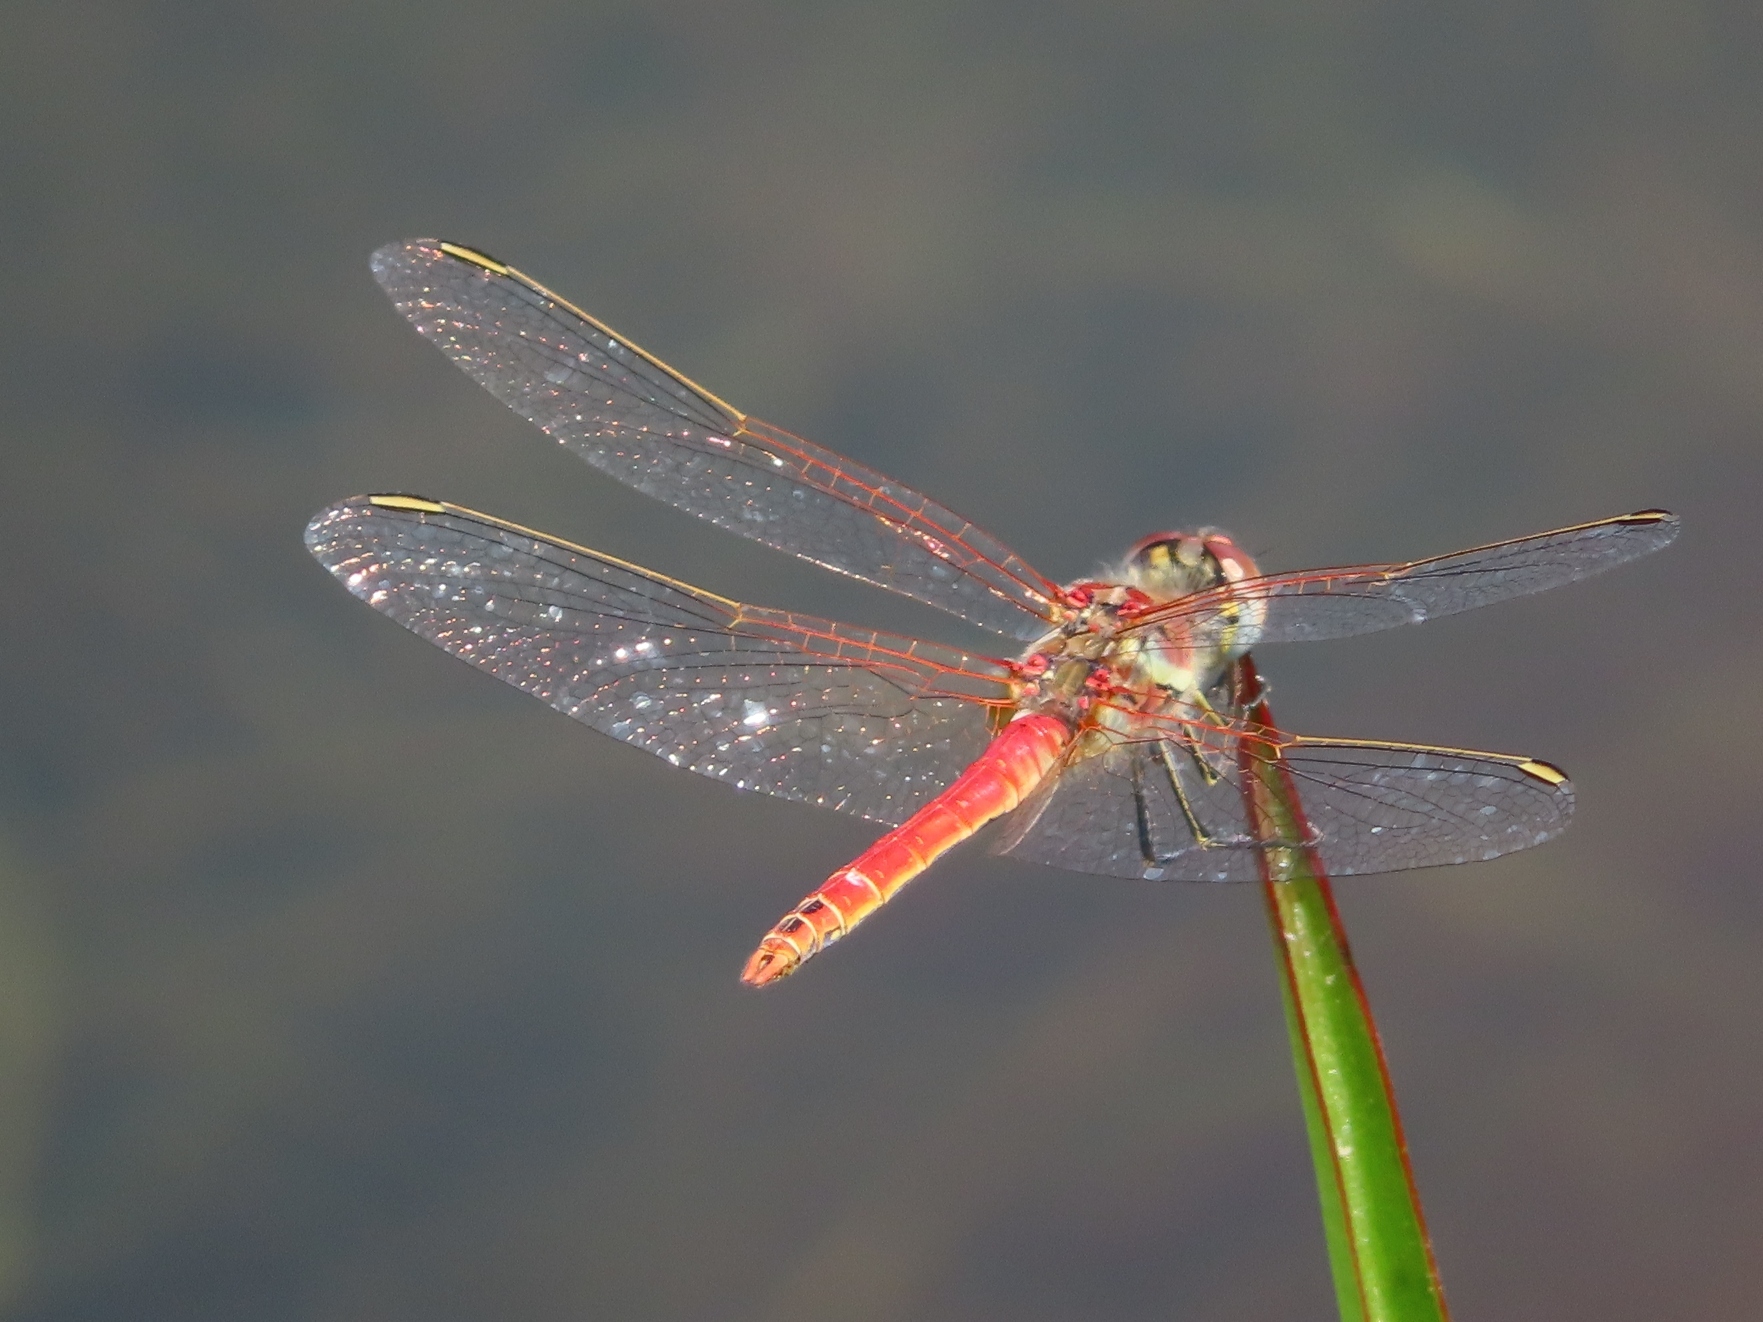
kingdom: Animalia
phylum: Arthropoda
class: Insecta
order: Odonata
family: Libellulidae
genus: Sympetrum
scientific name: Sympetrum fonscolombii
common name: Red-veined darter
